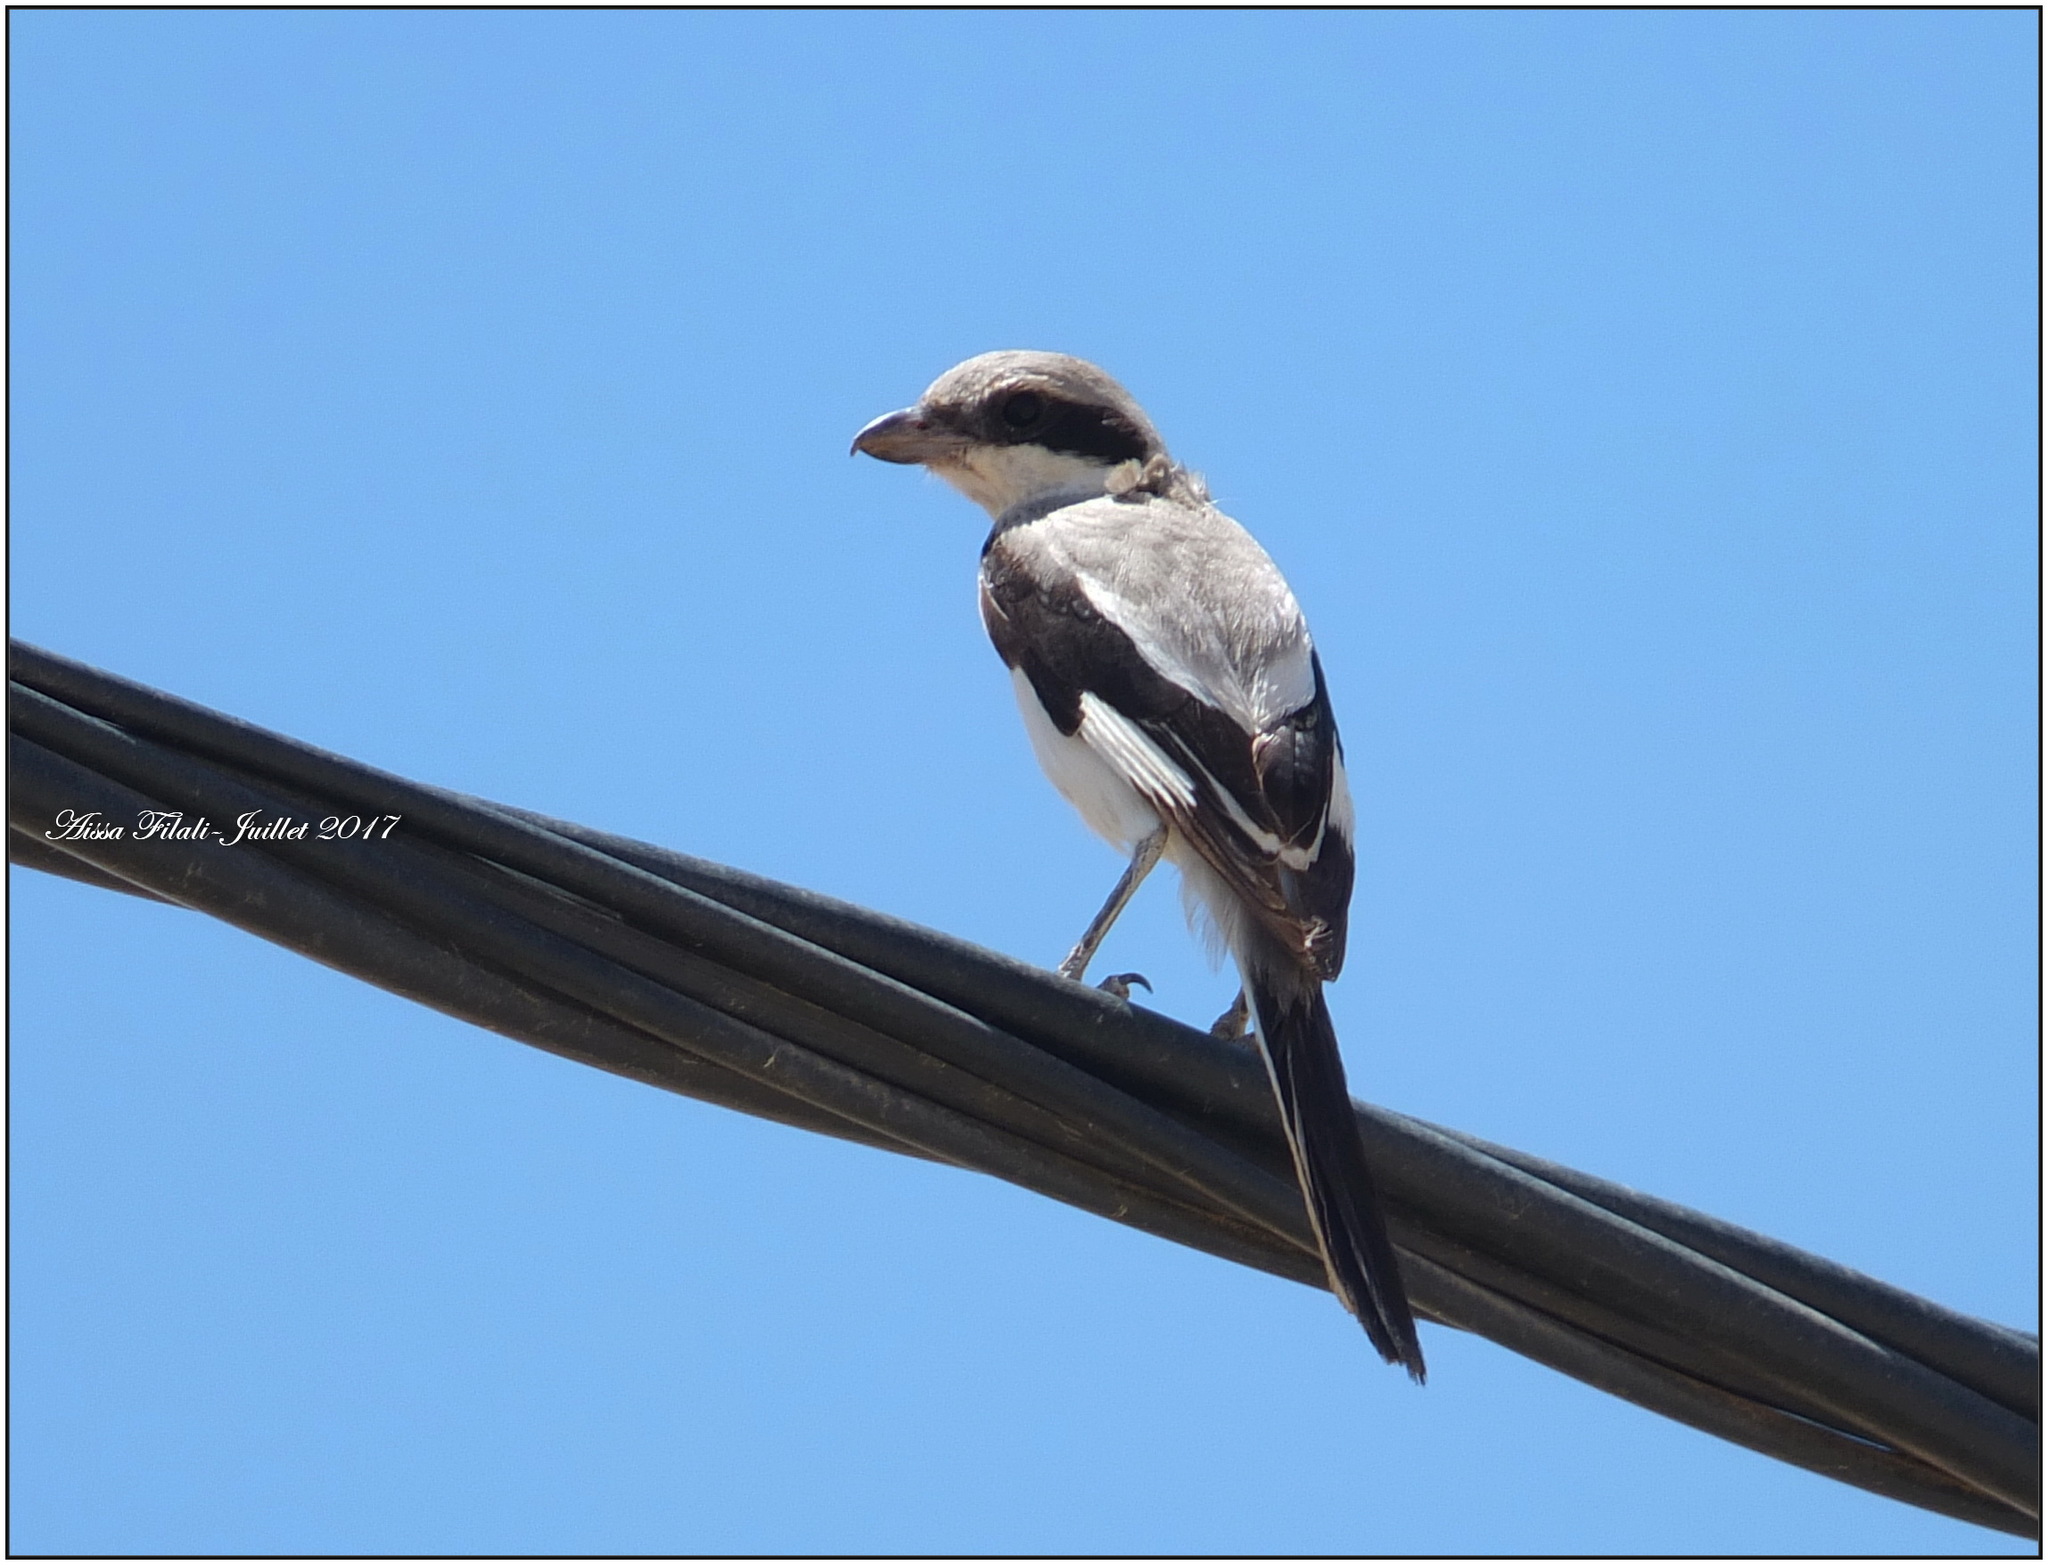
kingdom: Animalia
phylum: Chordata
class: Aves
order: Passeriformes
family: Laniidae
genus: Lanius
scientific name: Lanius excubitor
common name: Great grey shrike
